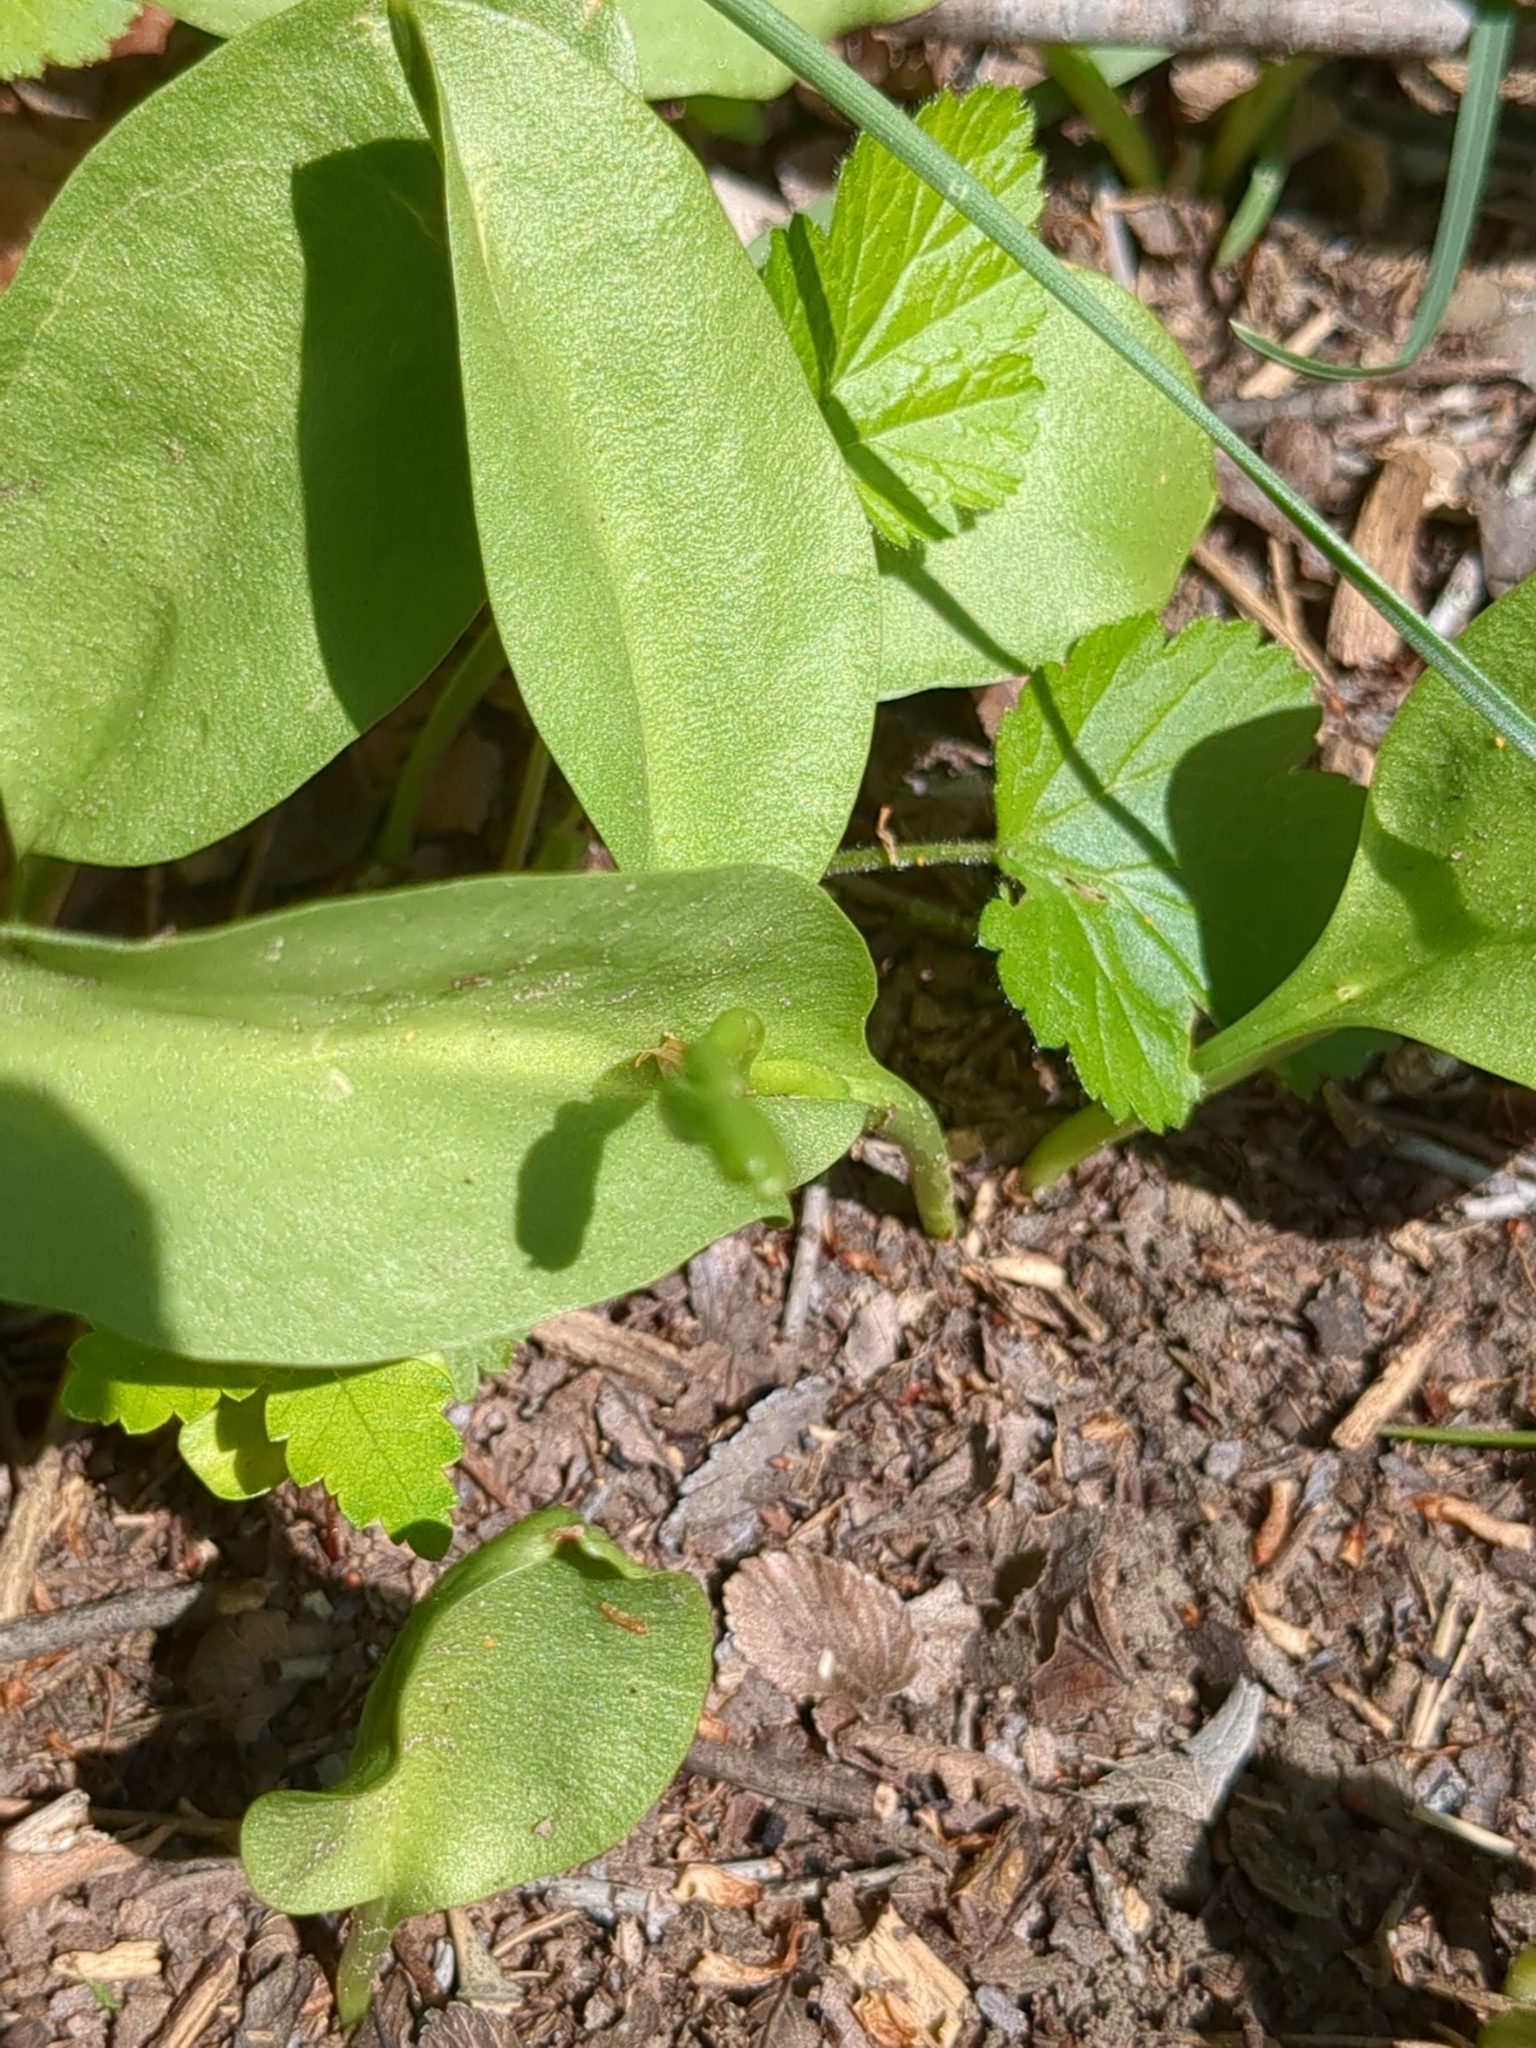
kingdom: Plantae
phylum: Tracheophyta
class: Polypodiopsida
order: Ophioglossales
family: Ophioglossaceae
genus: Ophioglossum
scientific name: Ophioglossum engelmannii
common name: Limestone adder's-tongue
